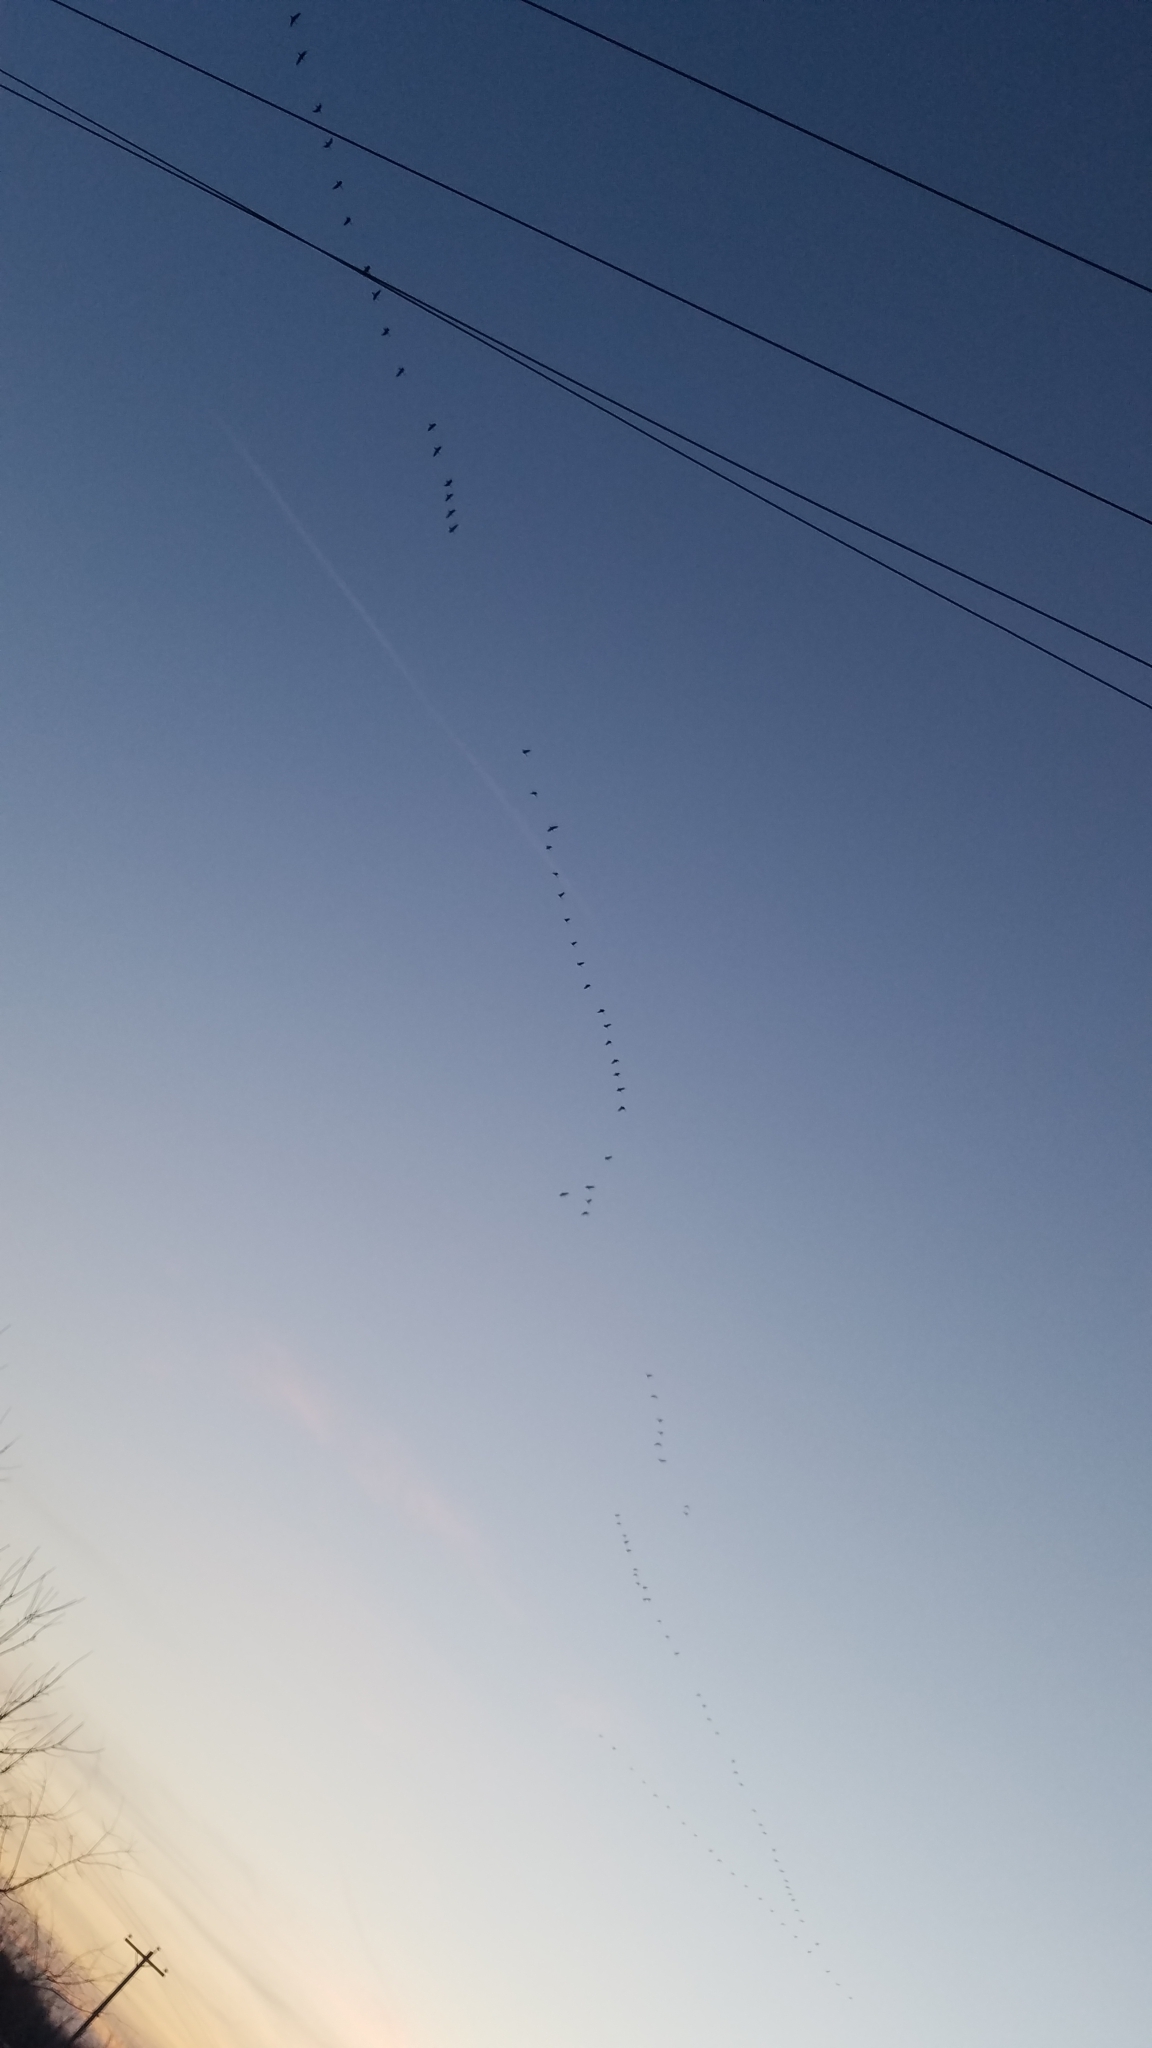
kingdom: Animalia
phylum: Chordata
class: Aves
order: Anseriformes
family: Anatidae
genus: Branta
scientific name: Branta canadensis
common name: Canada goose
